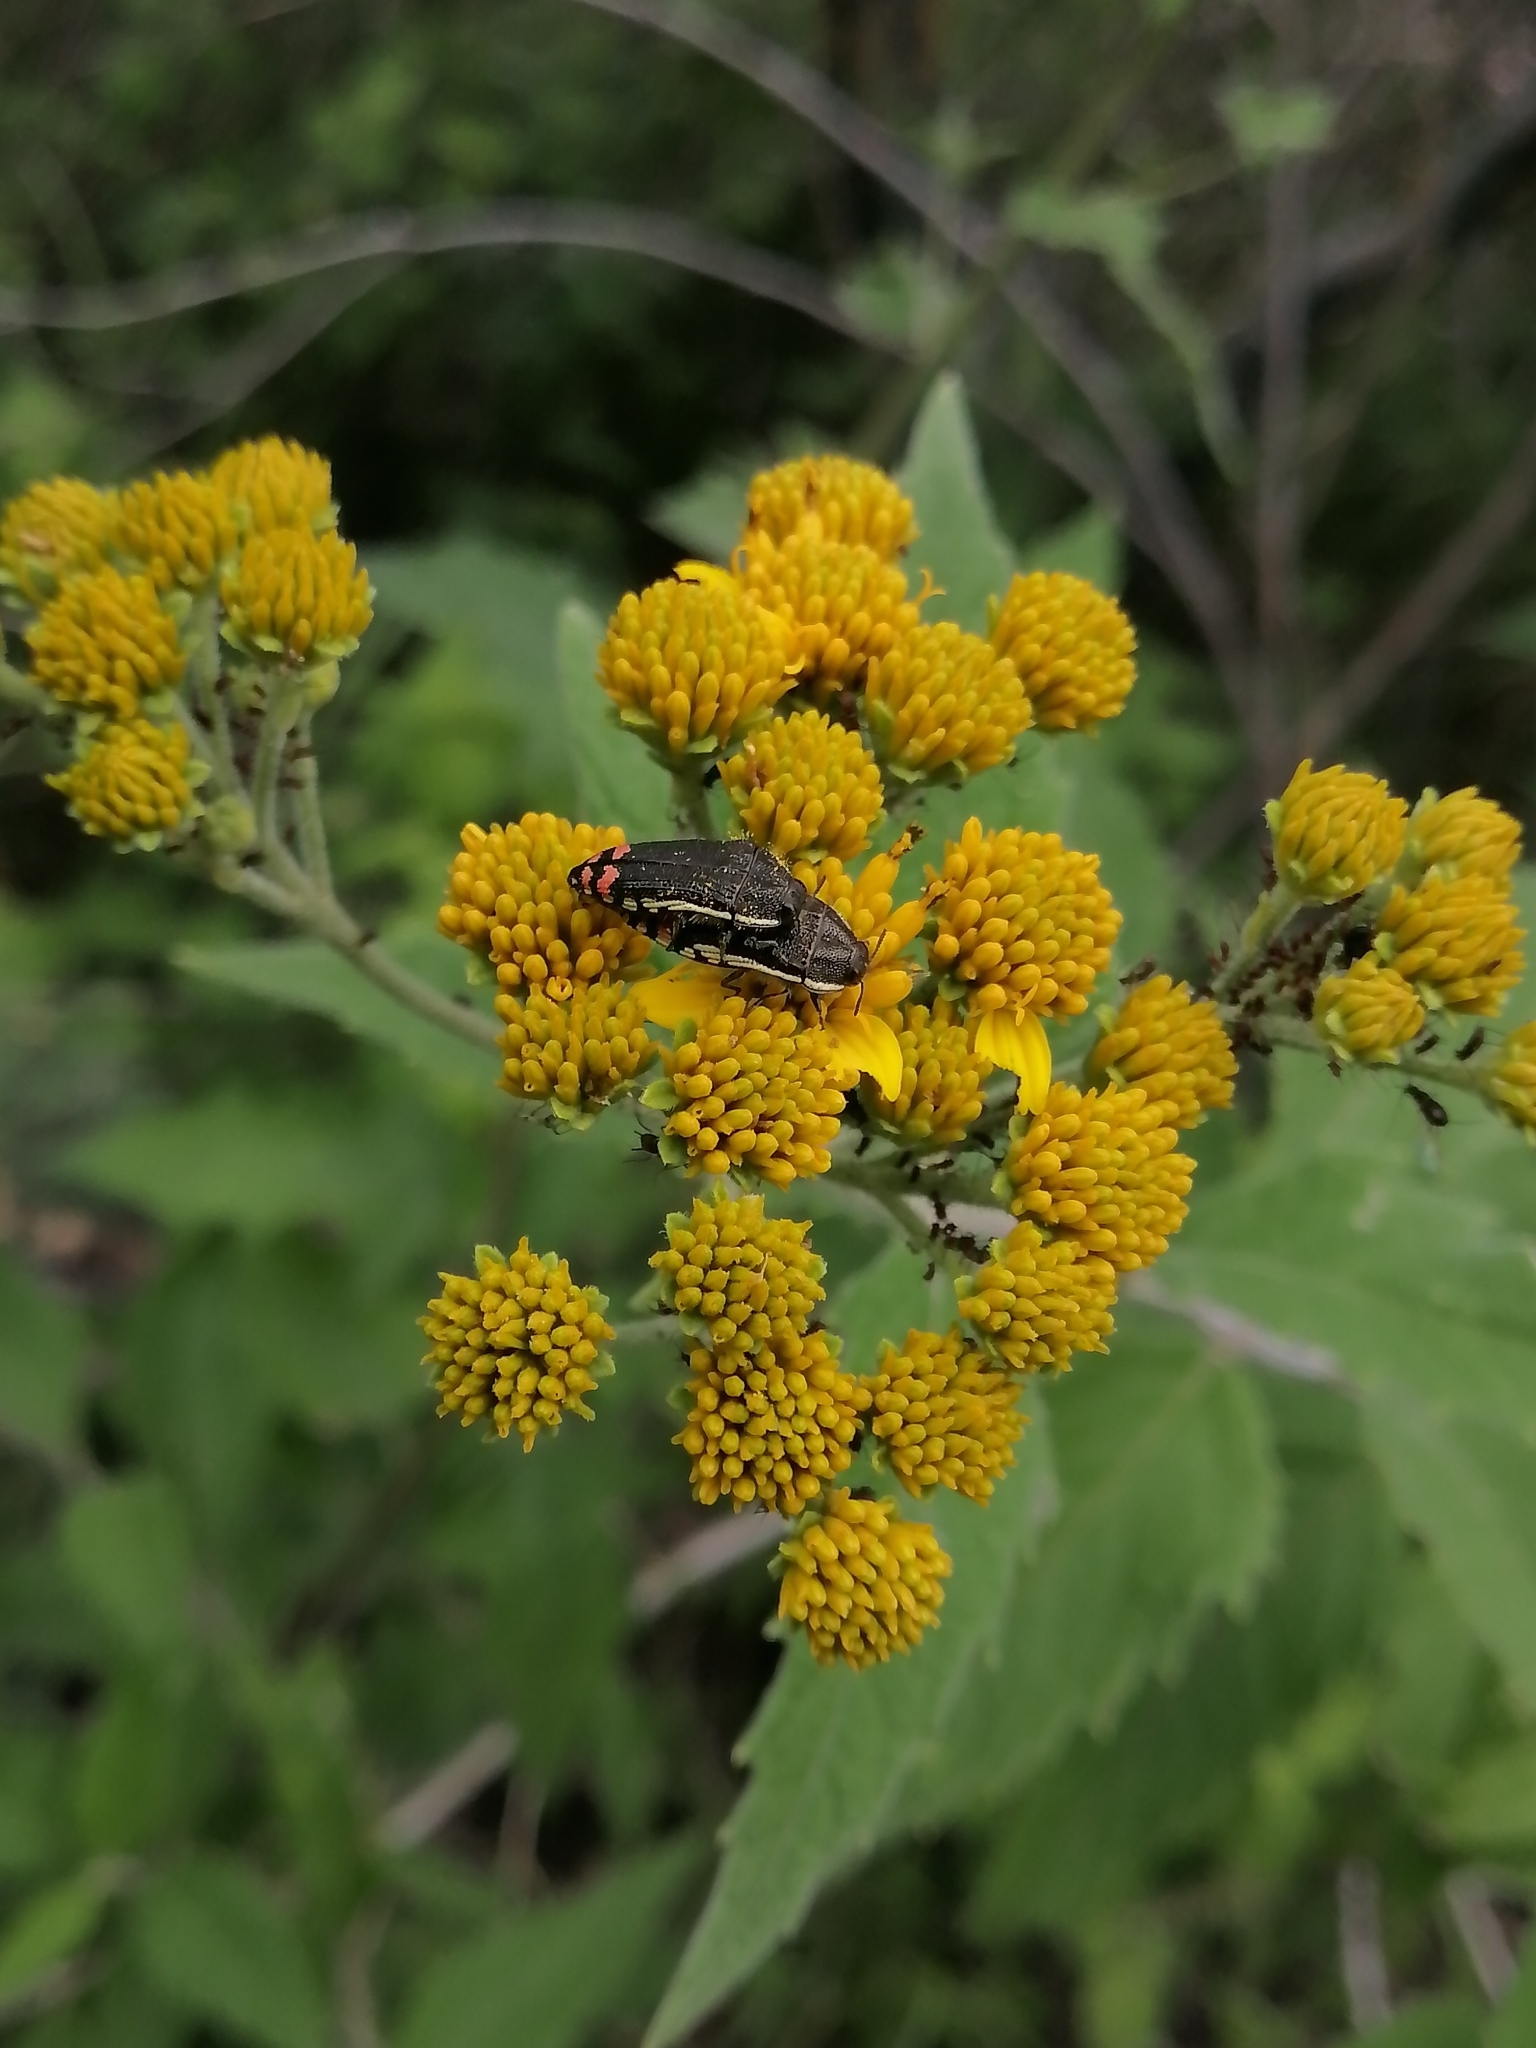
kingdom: Animalia
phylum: Arthropoda
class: Insecta
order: Coleoptera
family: Buprestidae
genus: Acmaeodera
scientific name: Acmaeodera flavomarginata
